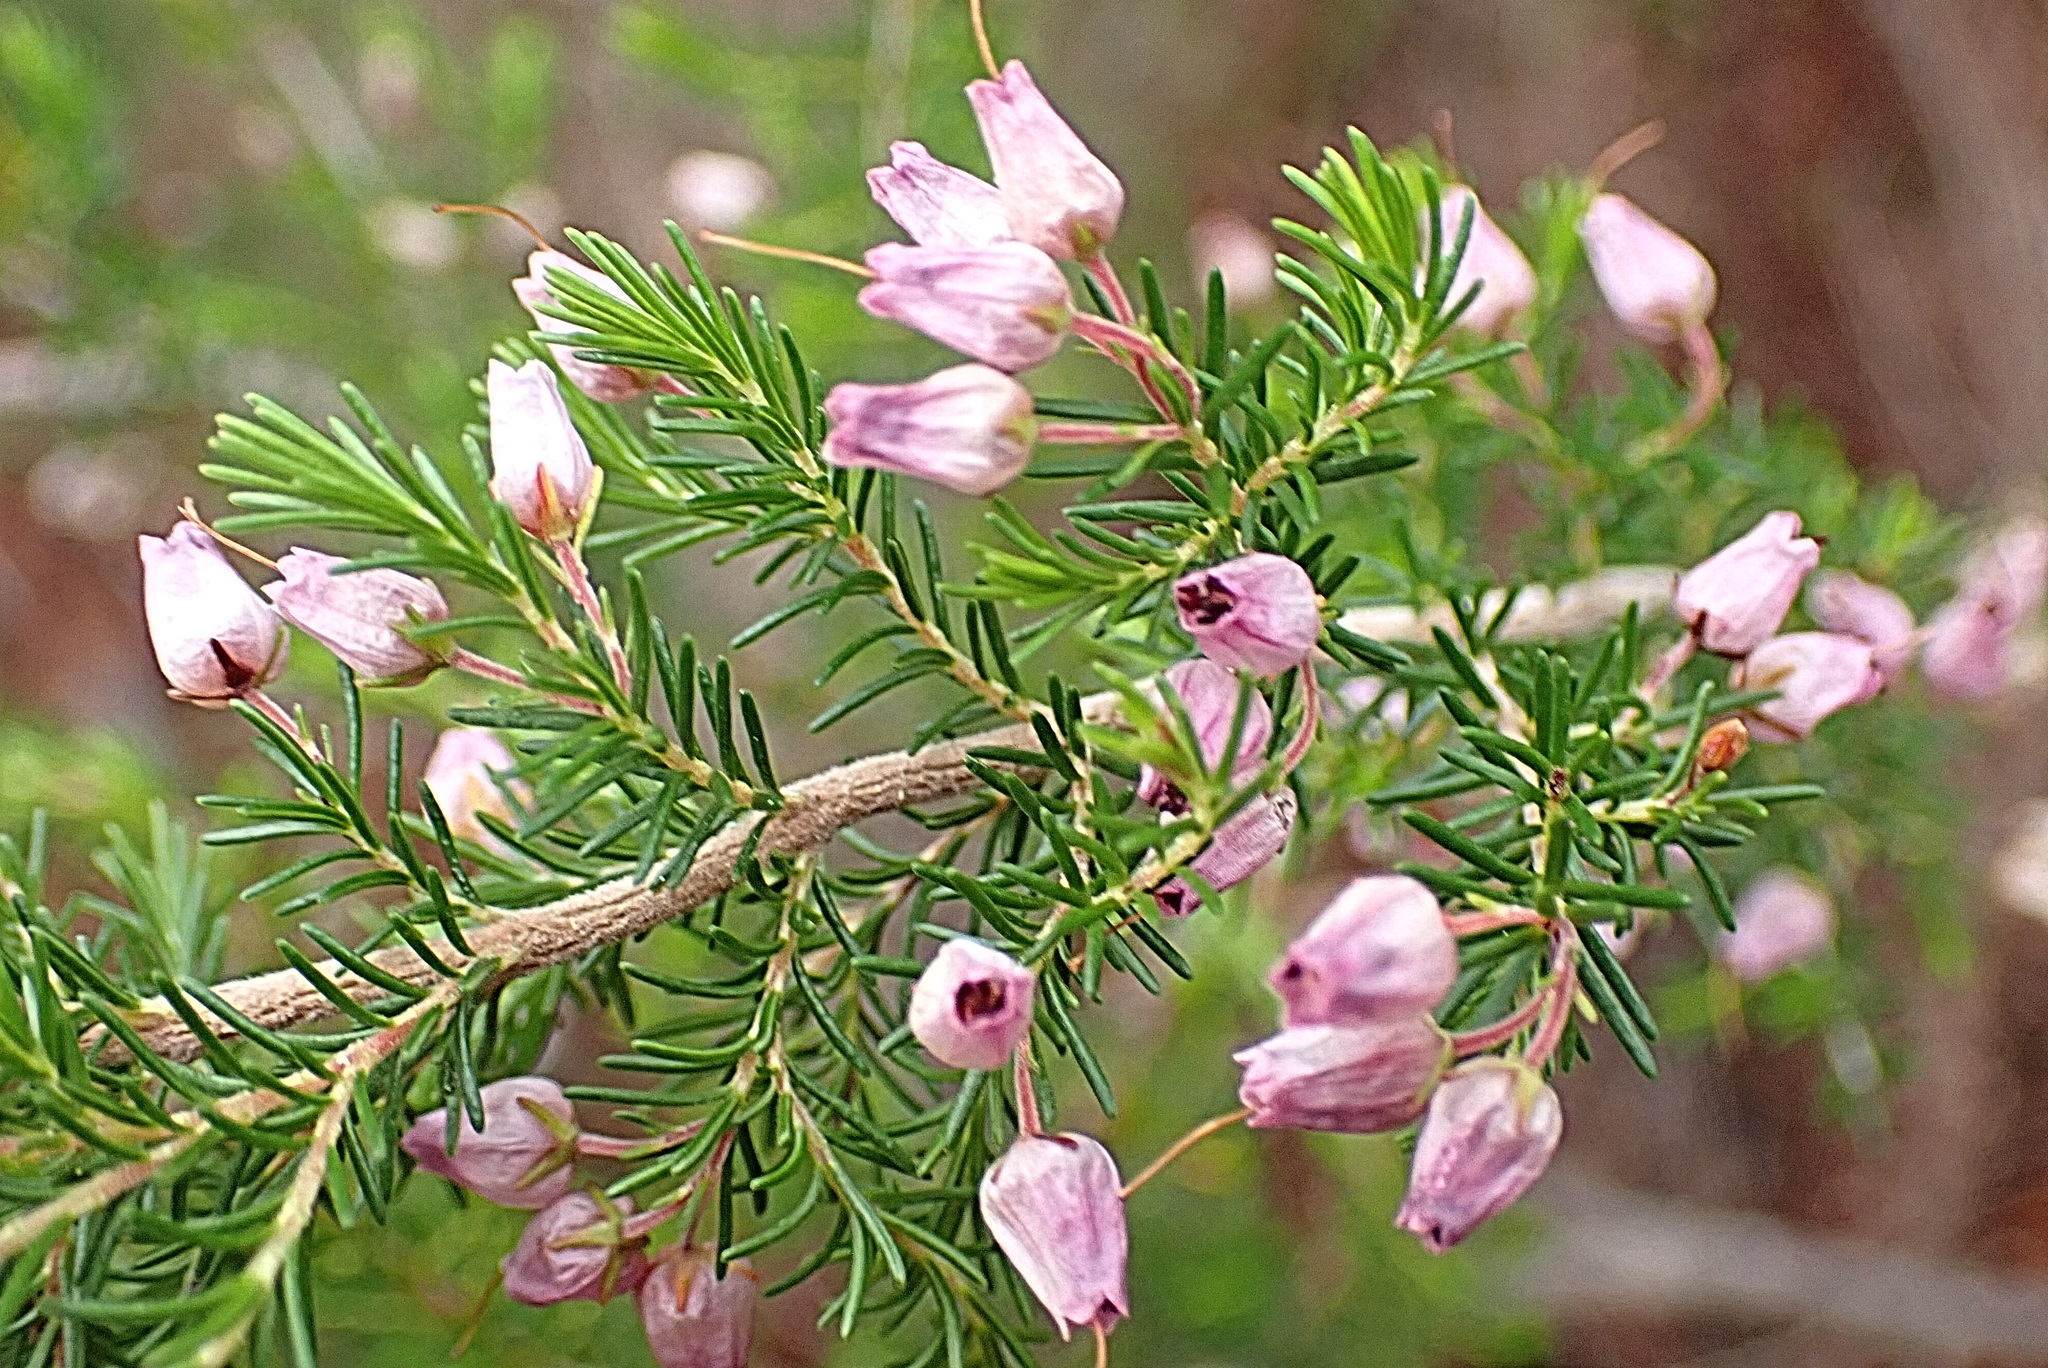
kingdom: Plantae
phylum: Tracheophyta
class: Magnoliopsida
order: Ericales
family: Ericaceae
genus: Erica
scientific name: Erica nutans
